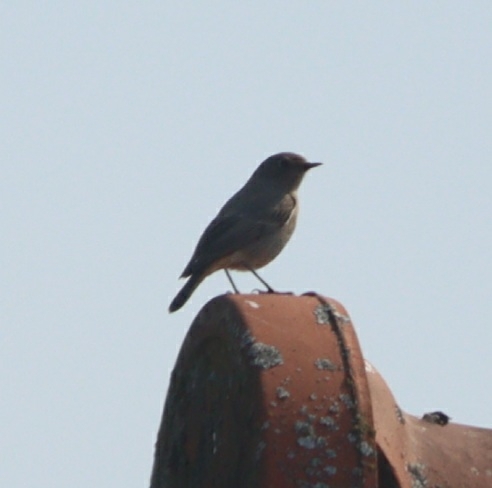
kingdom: Animalia
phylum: Chordata
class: Aves
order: Passeriformes
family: Muscicapidae
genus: Phoenicurus
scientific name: Phoenicurus ochruros
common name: Black redstart
